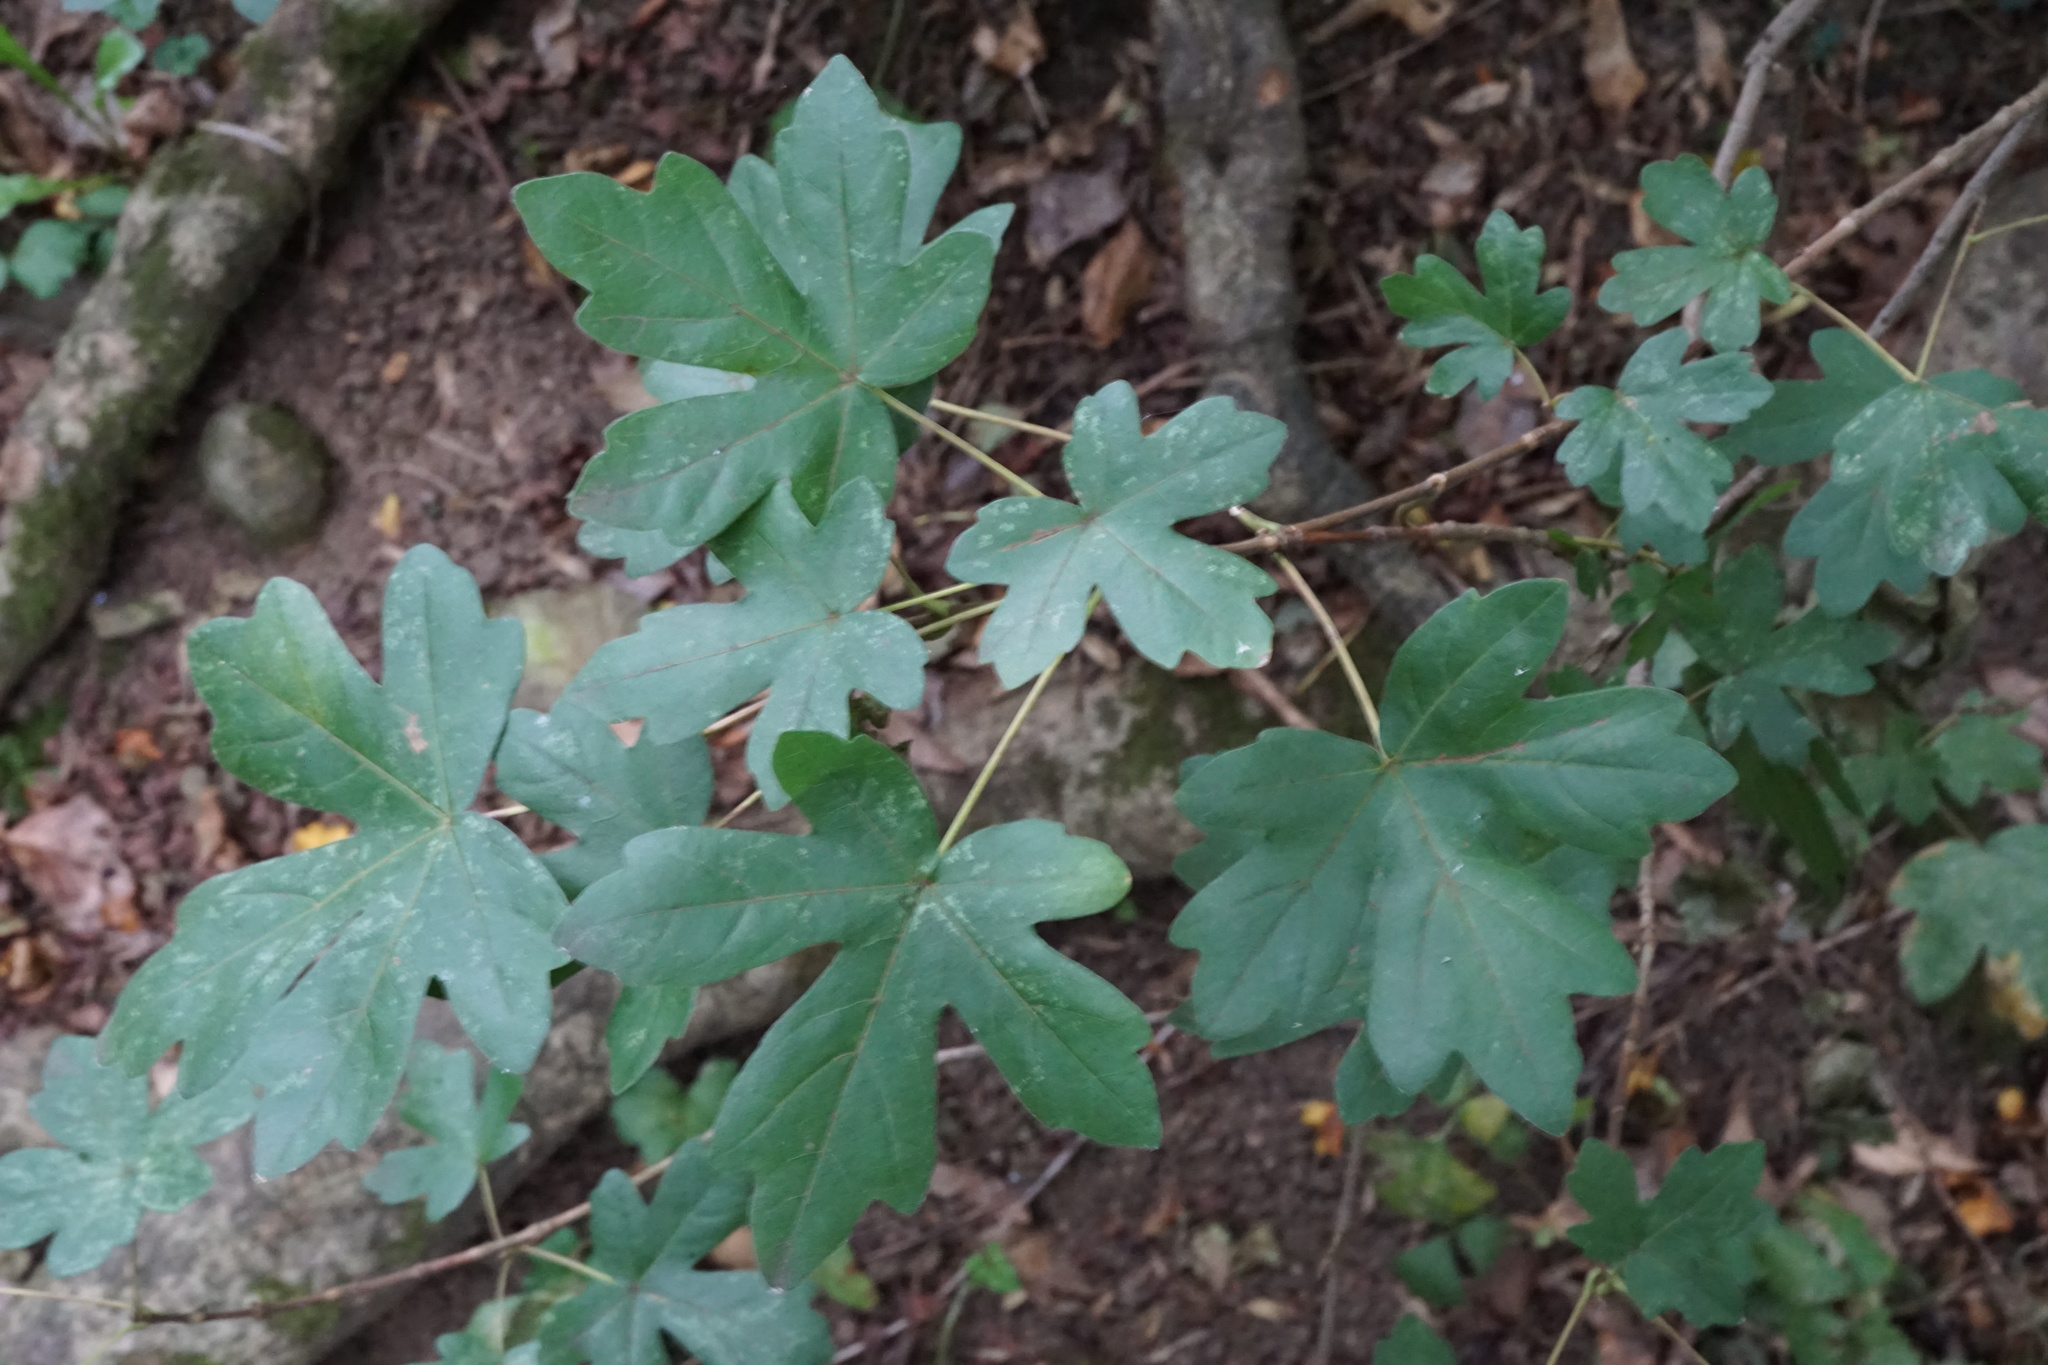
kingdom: Plantae
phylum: Tracheophyta
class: Magnoliopsida
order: Sapindales
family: Sapindaceae
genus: Acer
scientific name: Acer campestre
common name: Field maple
